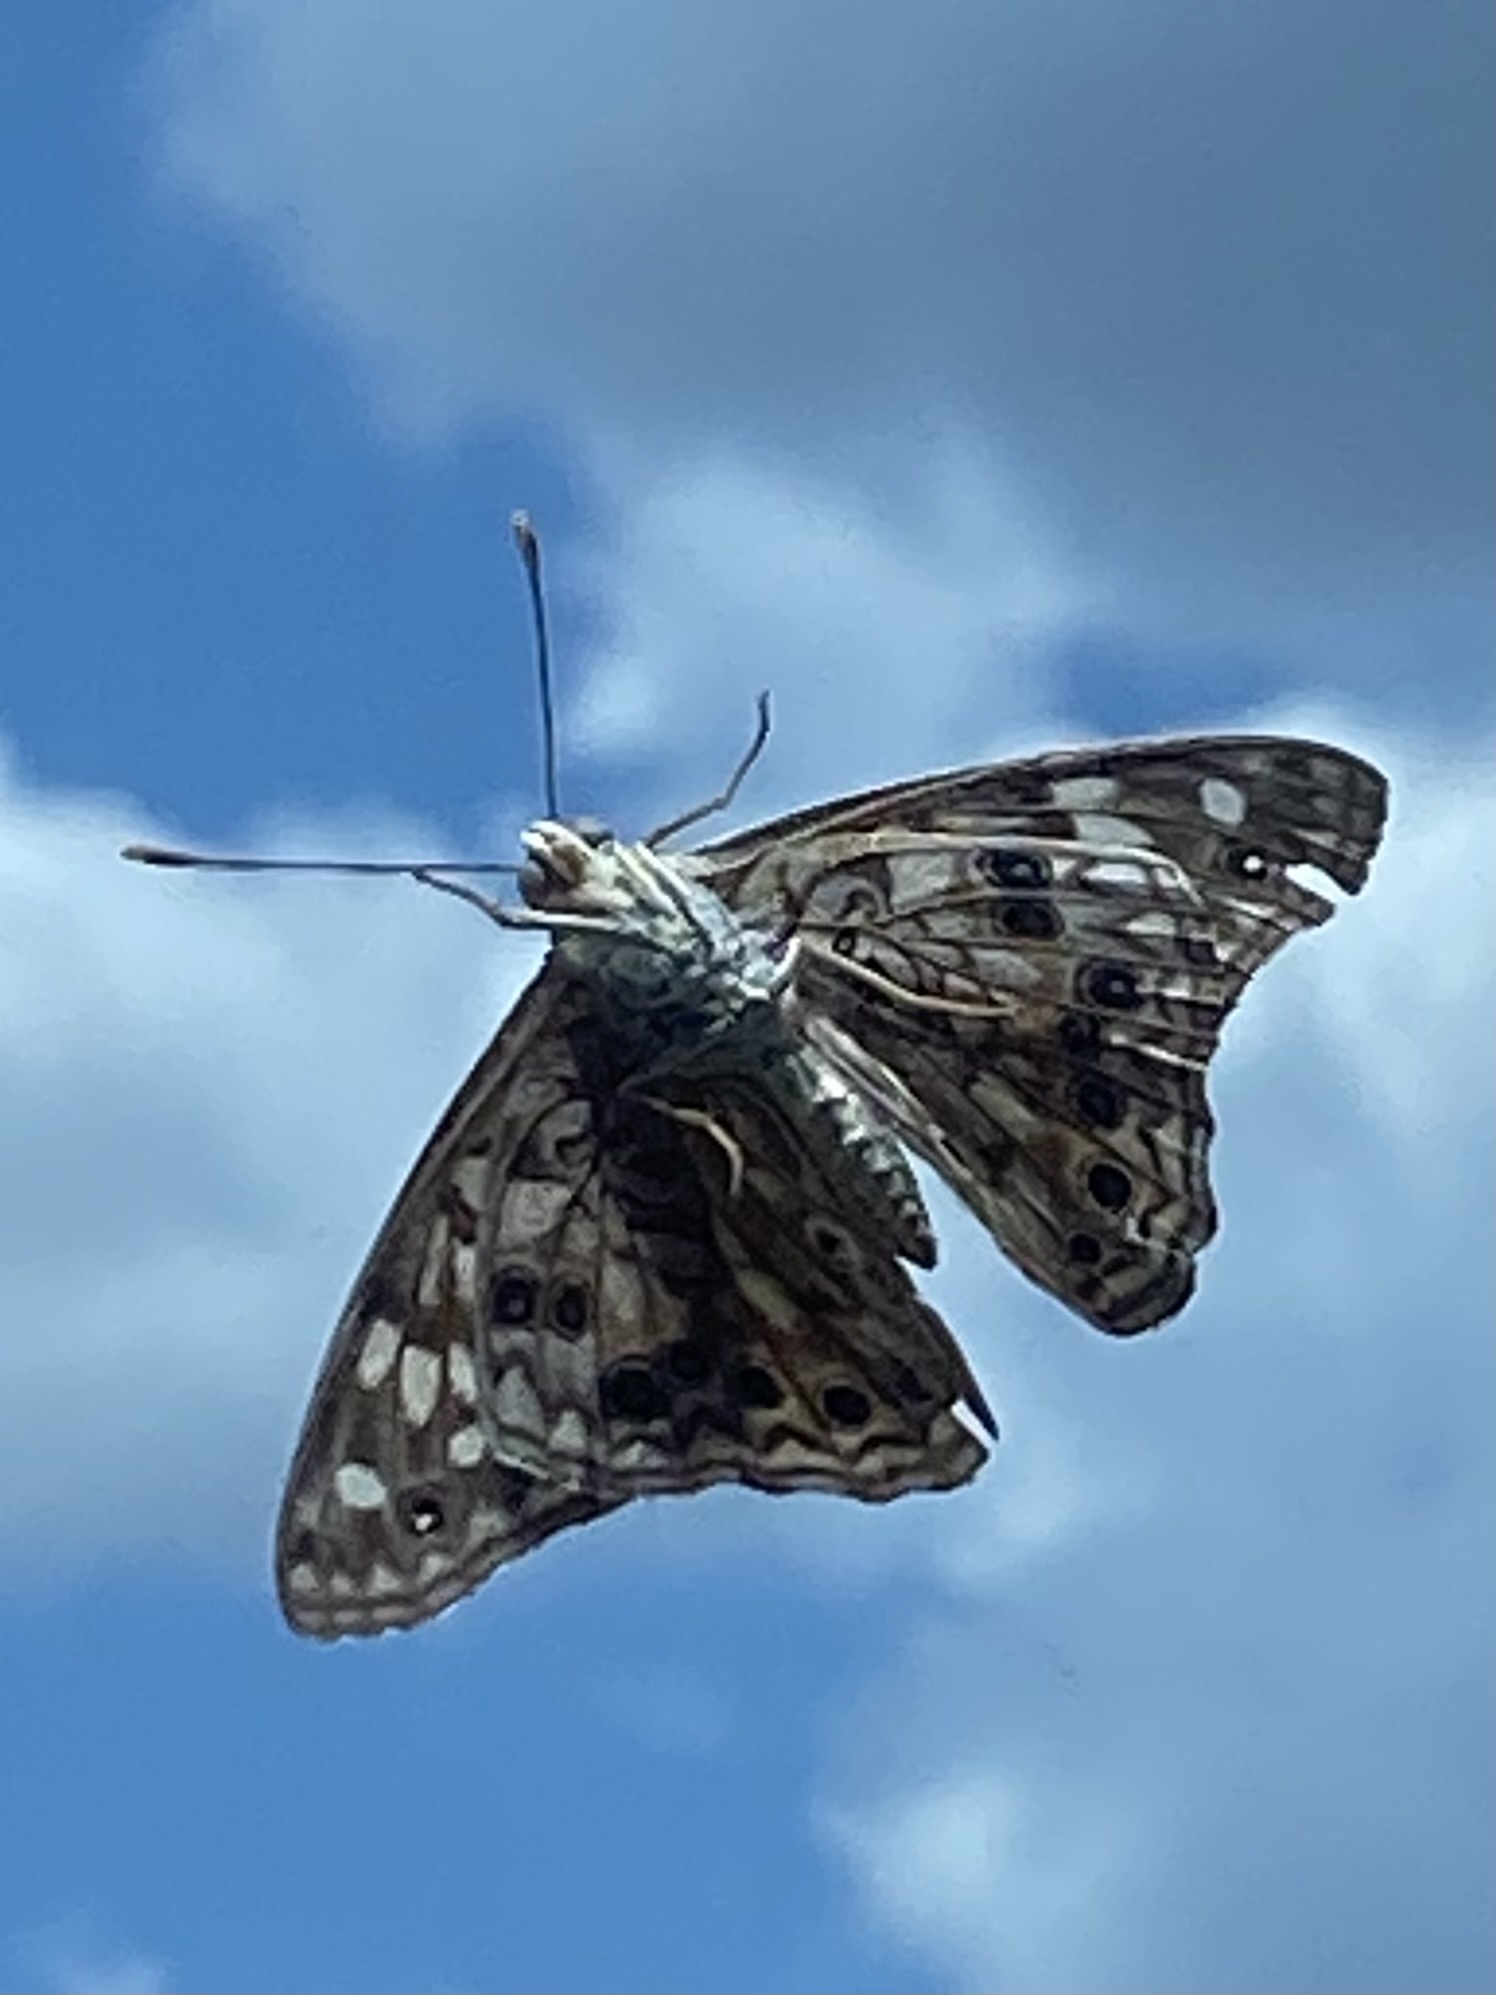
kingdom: Animalia
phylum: Arthropoda
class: Insecta
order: Lepidoptera
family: Nymphalidae
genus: Asterocampa
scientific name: Asterocampa celtis
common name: Hackberry emperor
